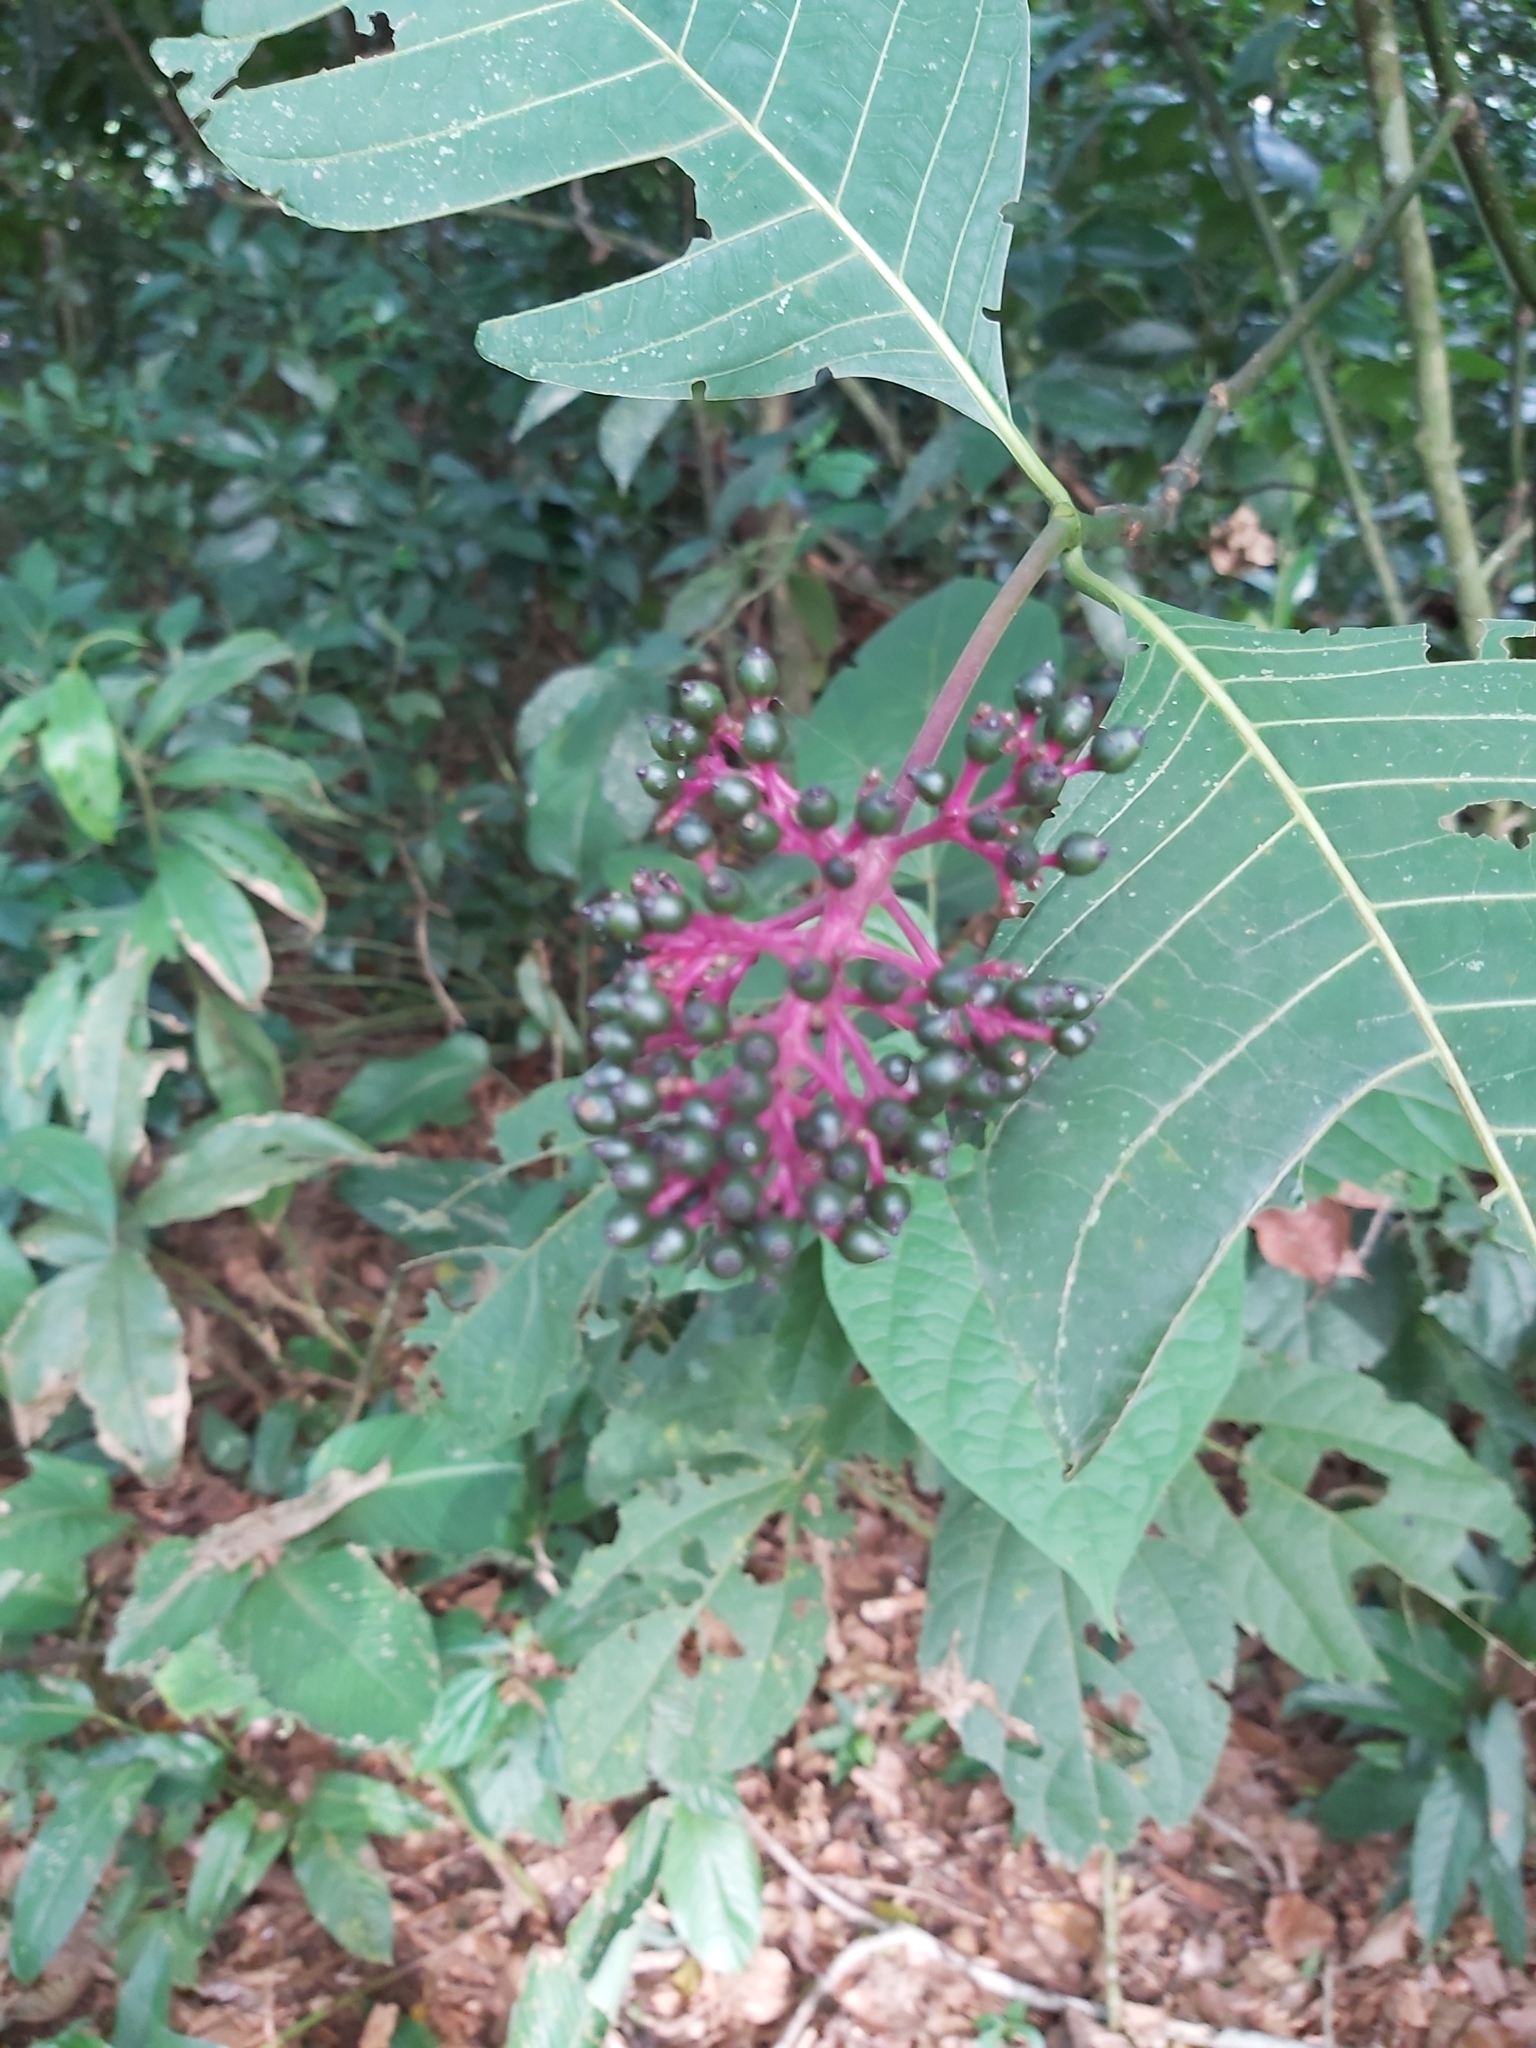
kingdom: Plantae
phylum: Tracheophyta
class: Magnoliopsida
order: Gentianales
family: Rubiaceae
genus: Palicourea
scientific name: Palicourea guianensis
